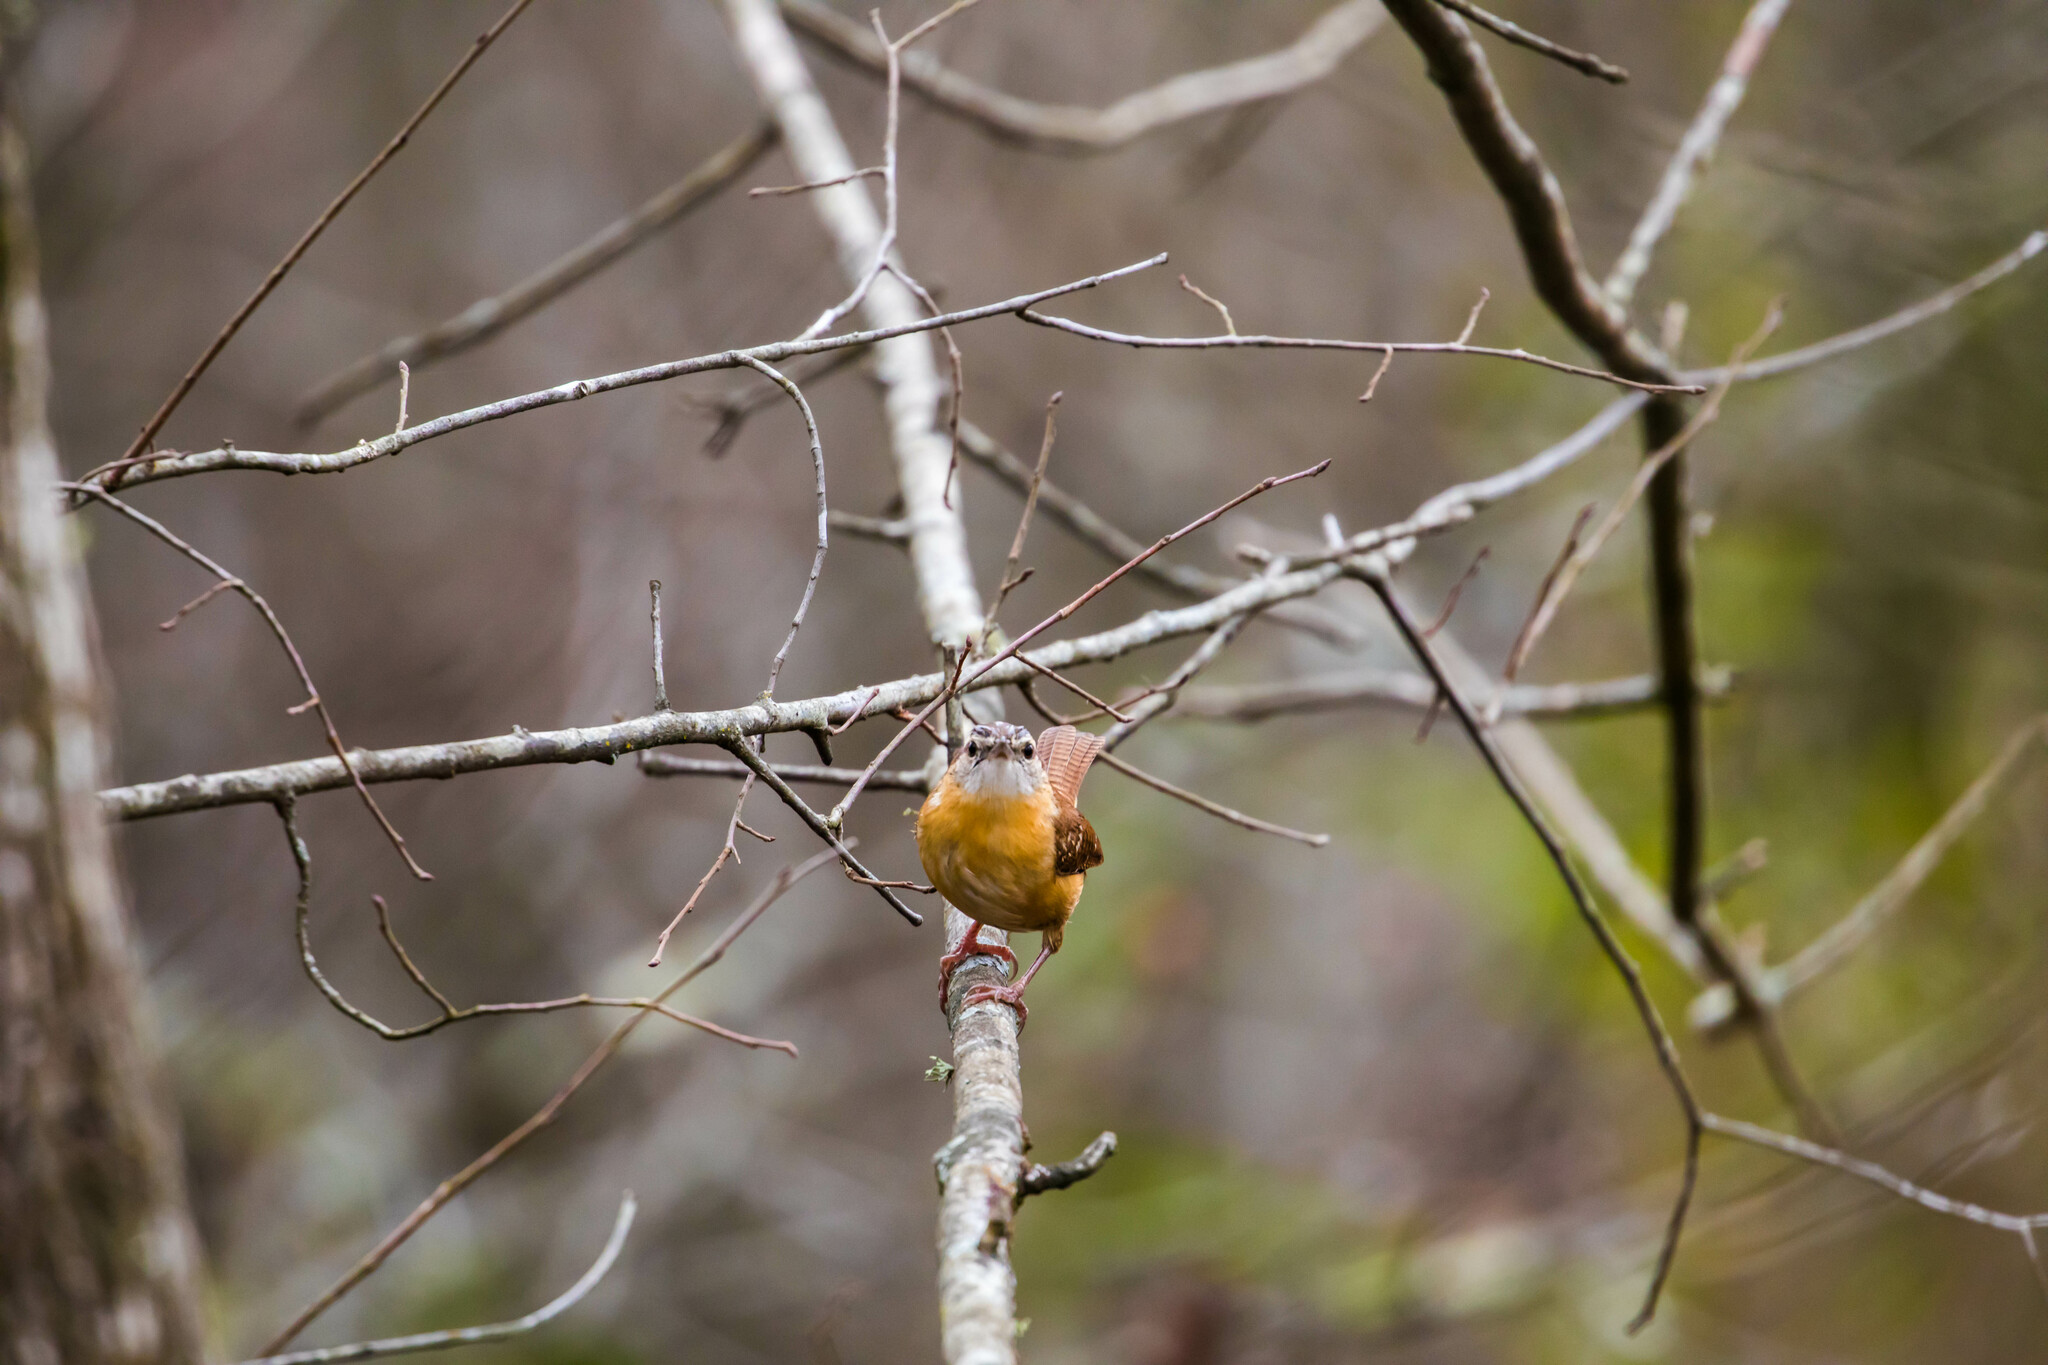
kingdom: Animalia
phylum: Chordata
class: Aves
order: Passeriformes
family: Troglodytidae
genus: Thryothorus
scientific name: Thryothorus ludovicianus
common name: Carolina wren
